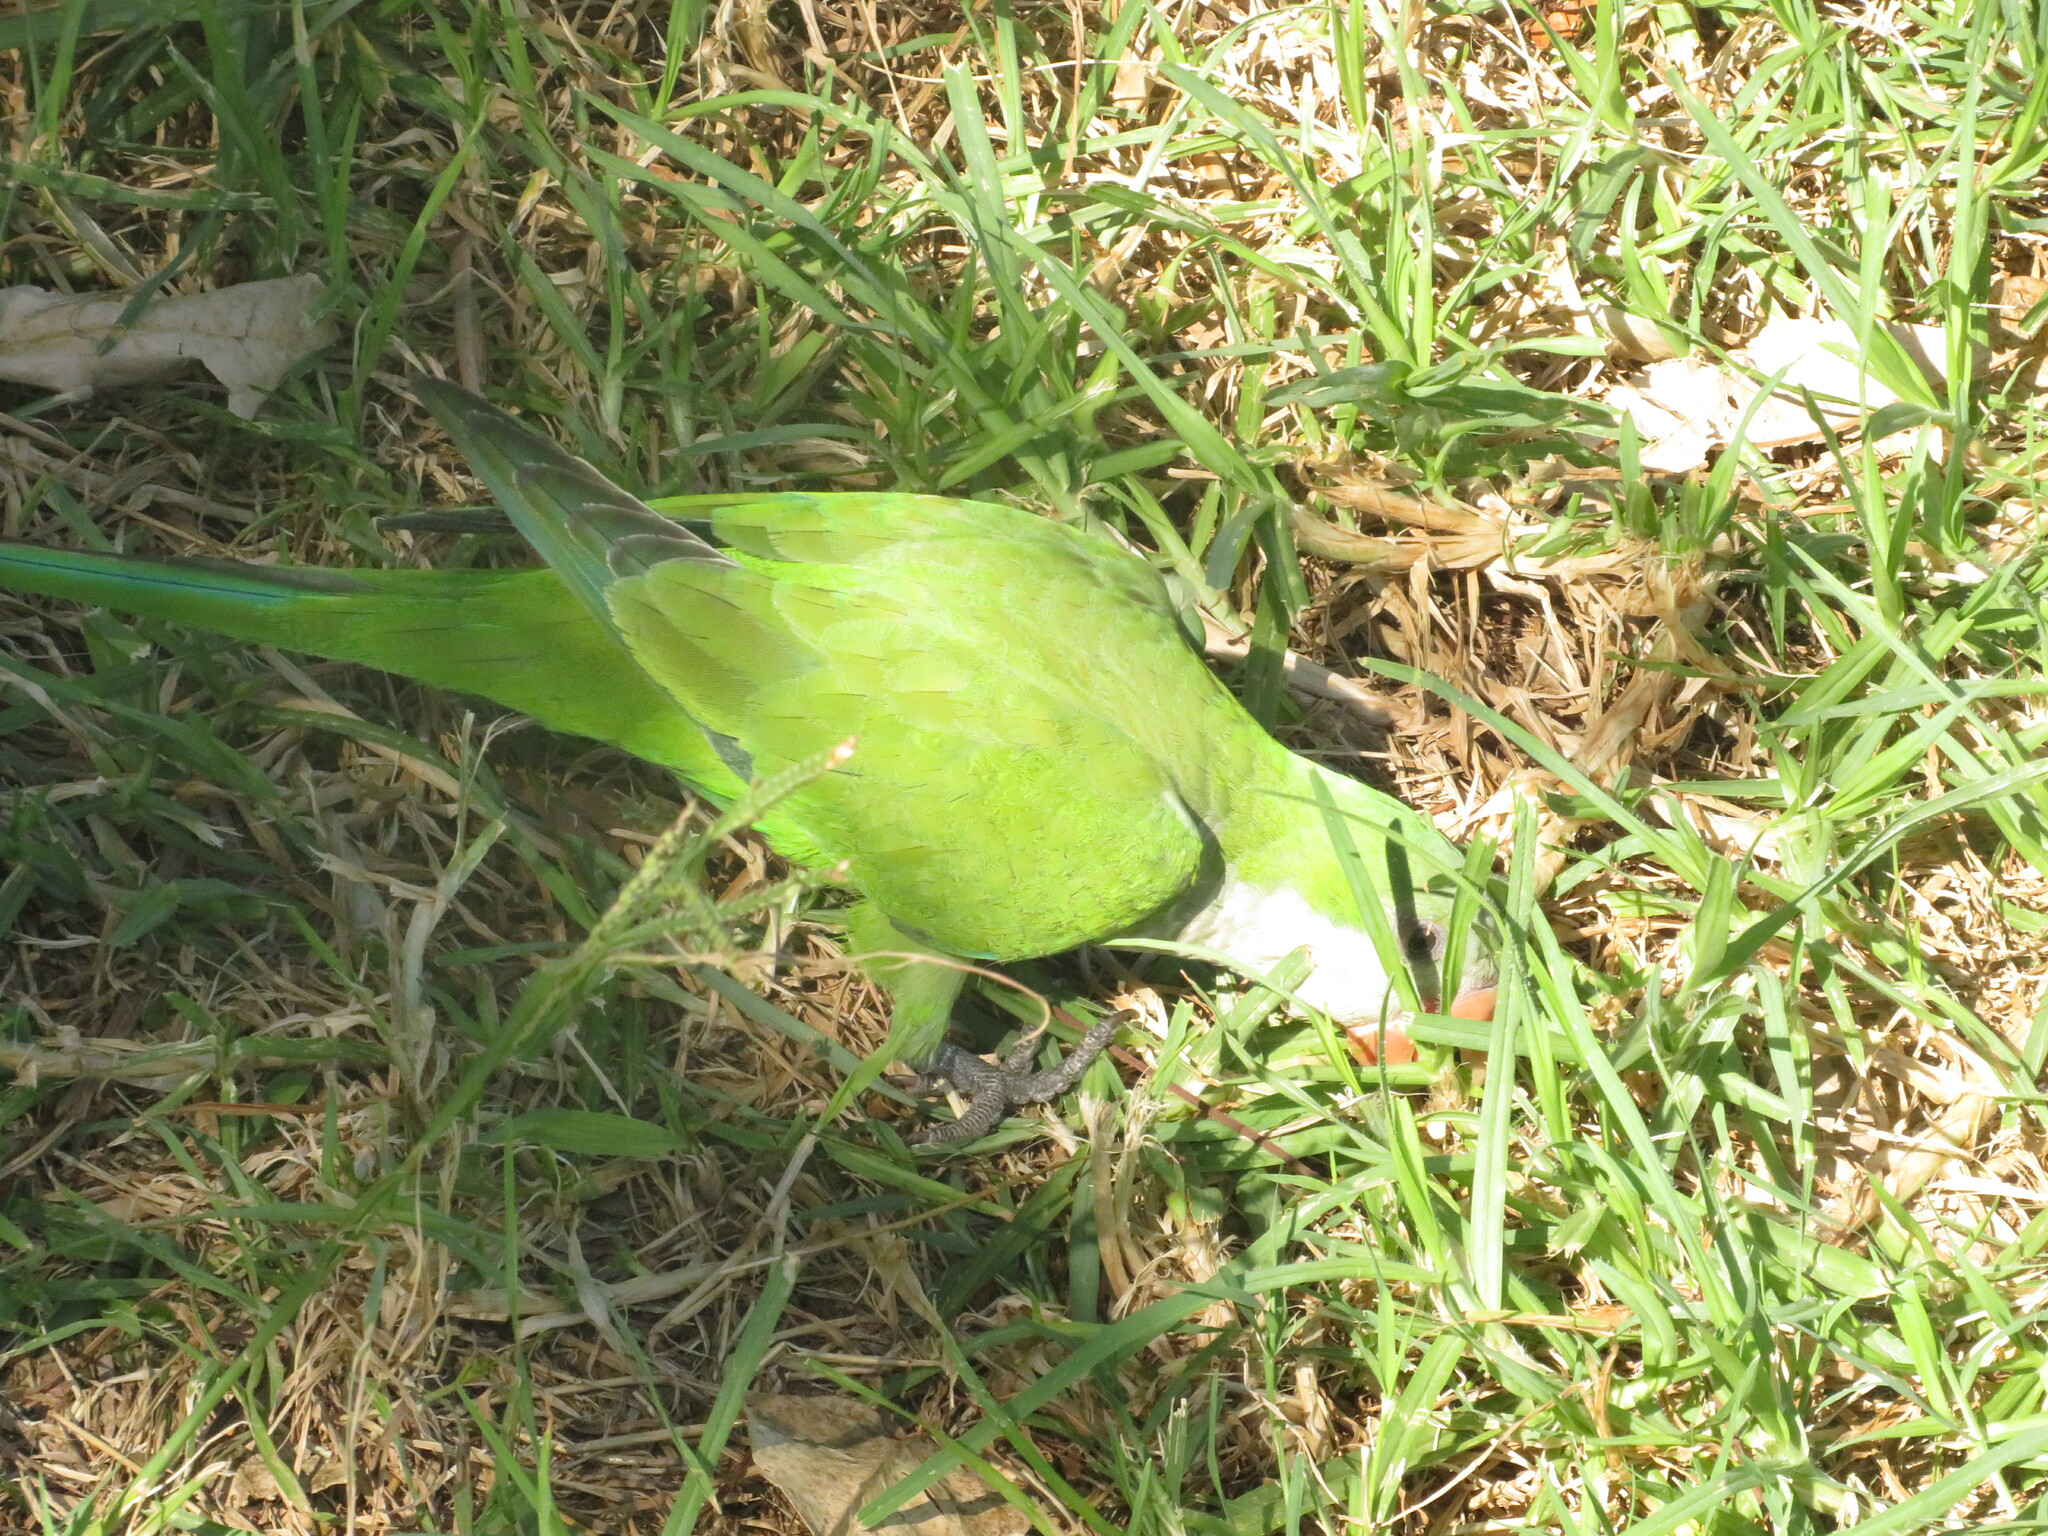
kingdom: Animalia
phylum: Chordata
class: Aves
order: Psittaciformes
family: Psittacidae
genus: Myiopsitta
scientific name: Myiopsitta monachus
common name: Monk parakeet
